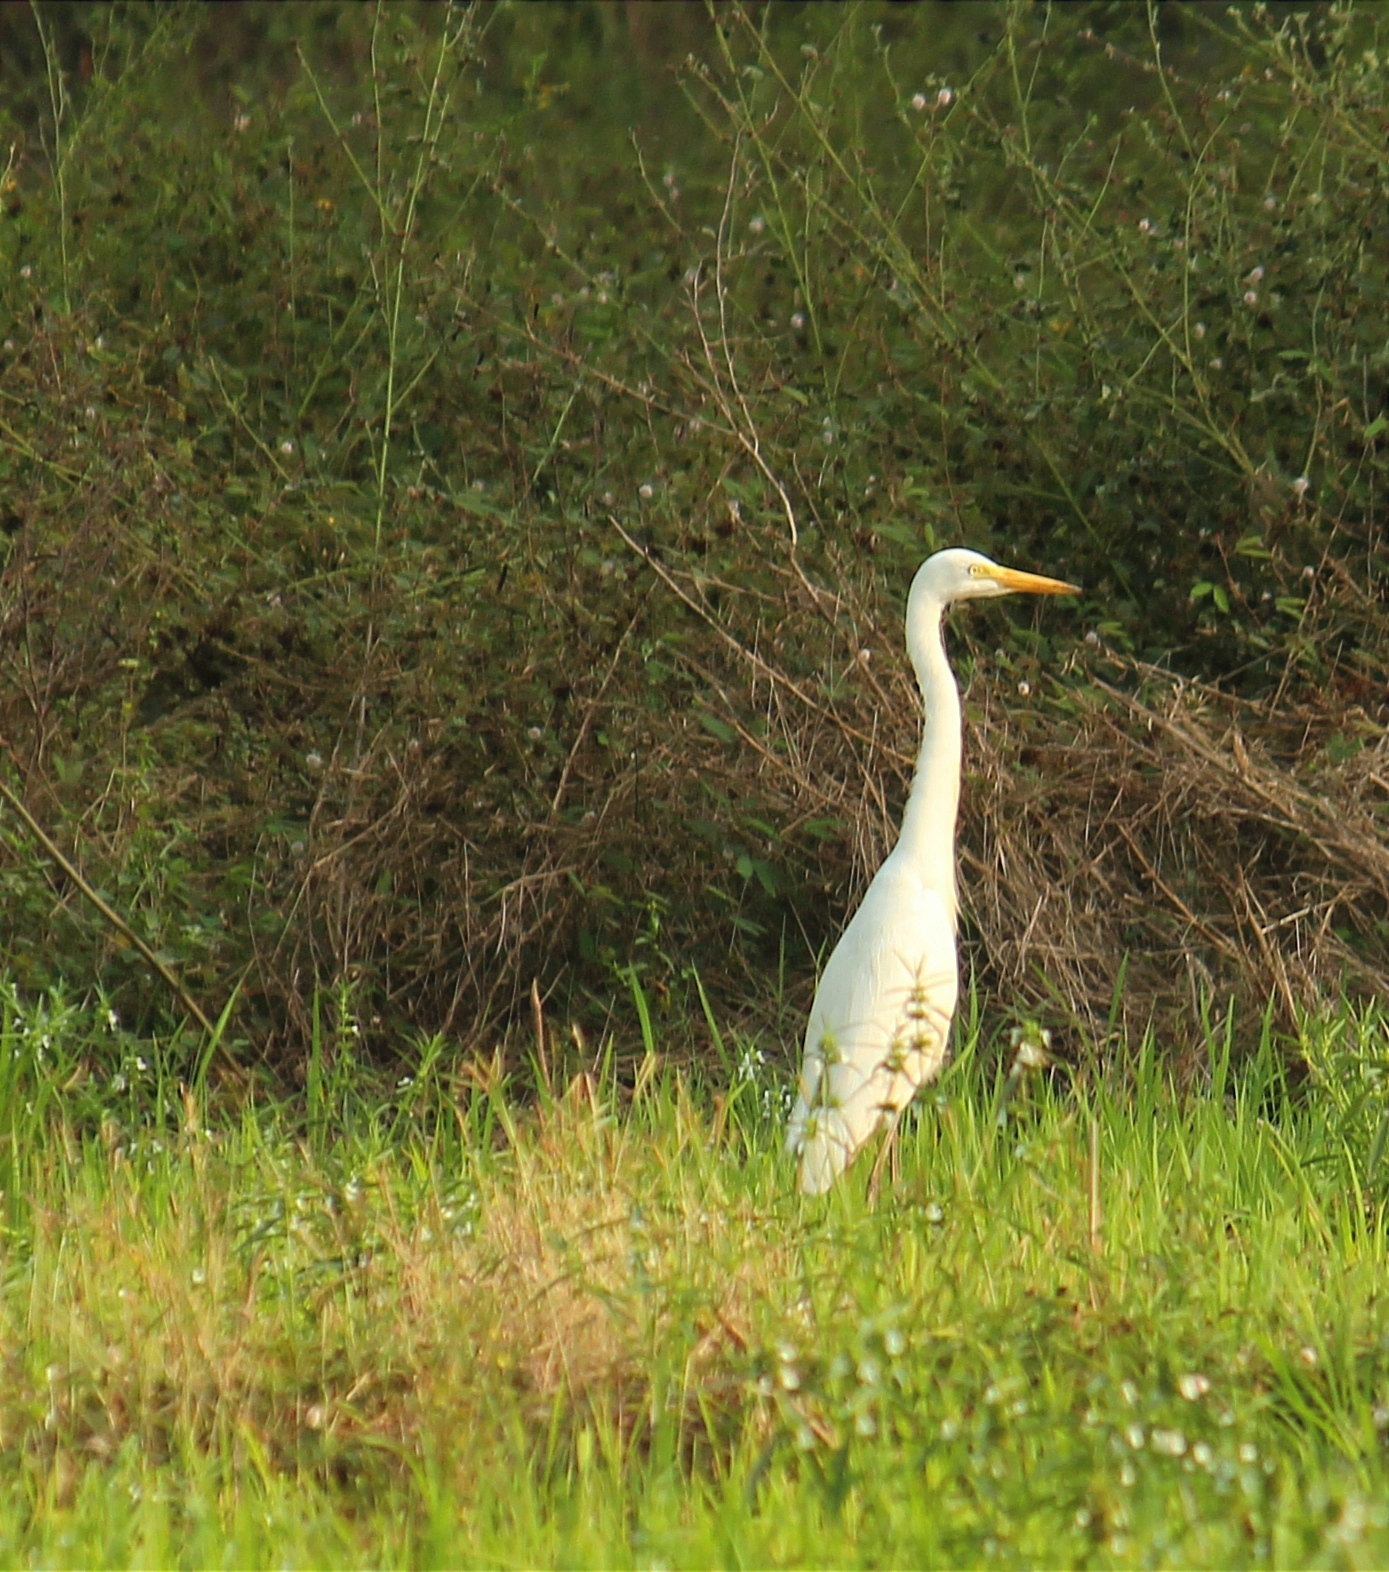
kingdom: Animalia
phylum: Chordata
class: Aves
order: Pelecaniformes
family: Ardeidae
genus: Egretta
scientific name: Egretta intermedia
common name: Intermediate egret
